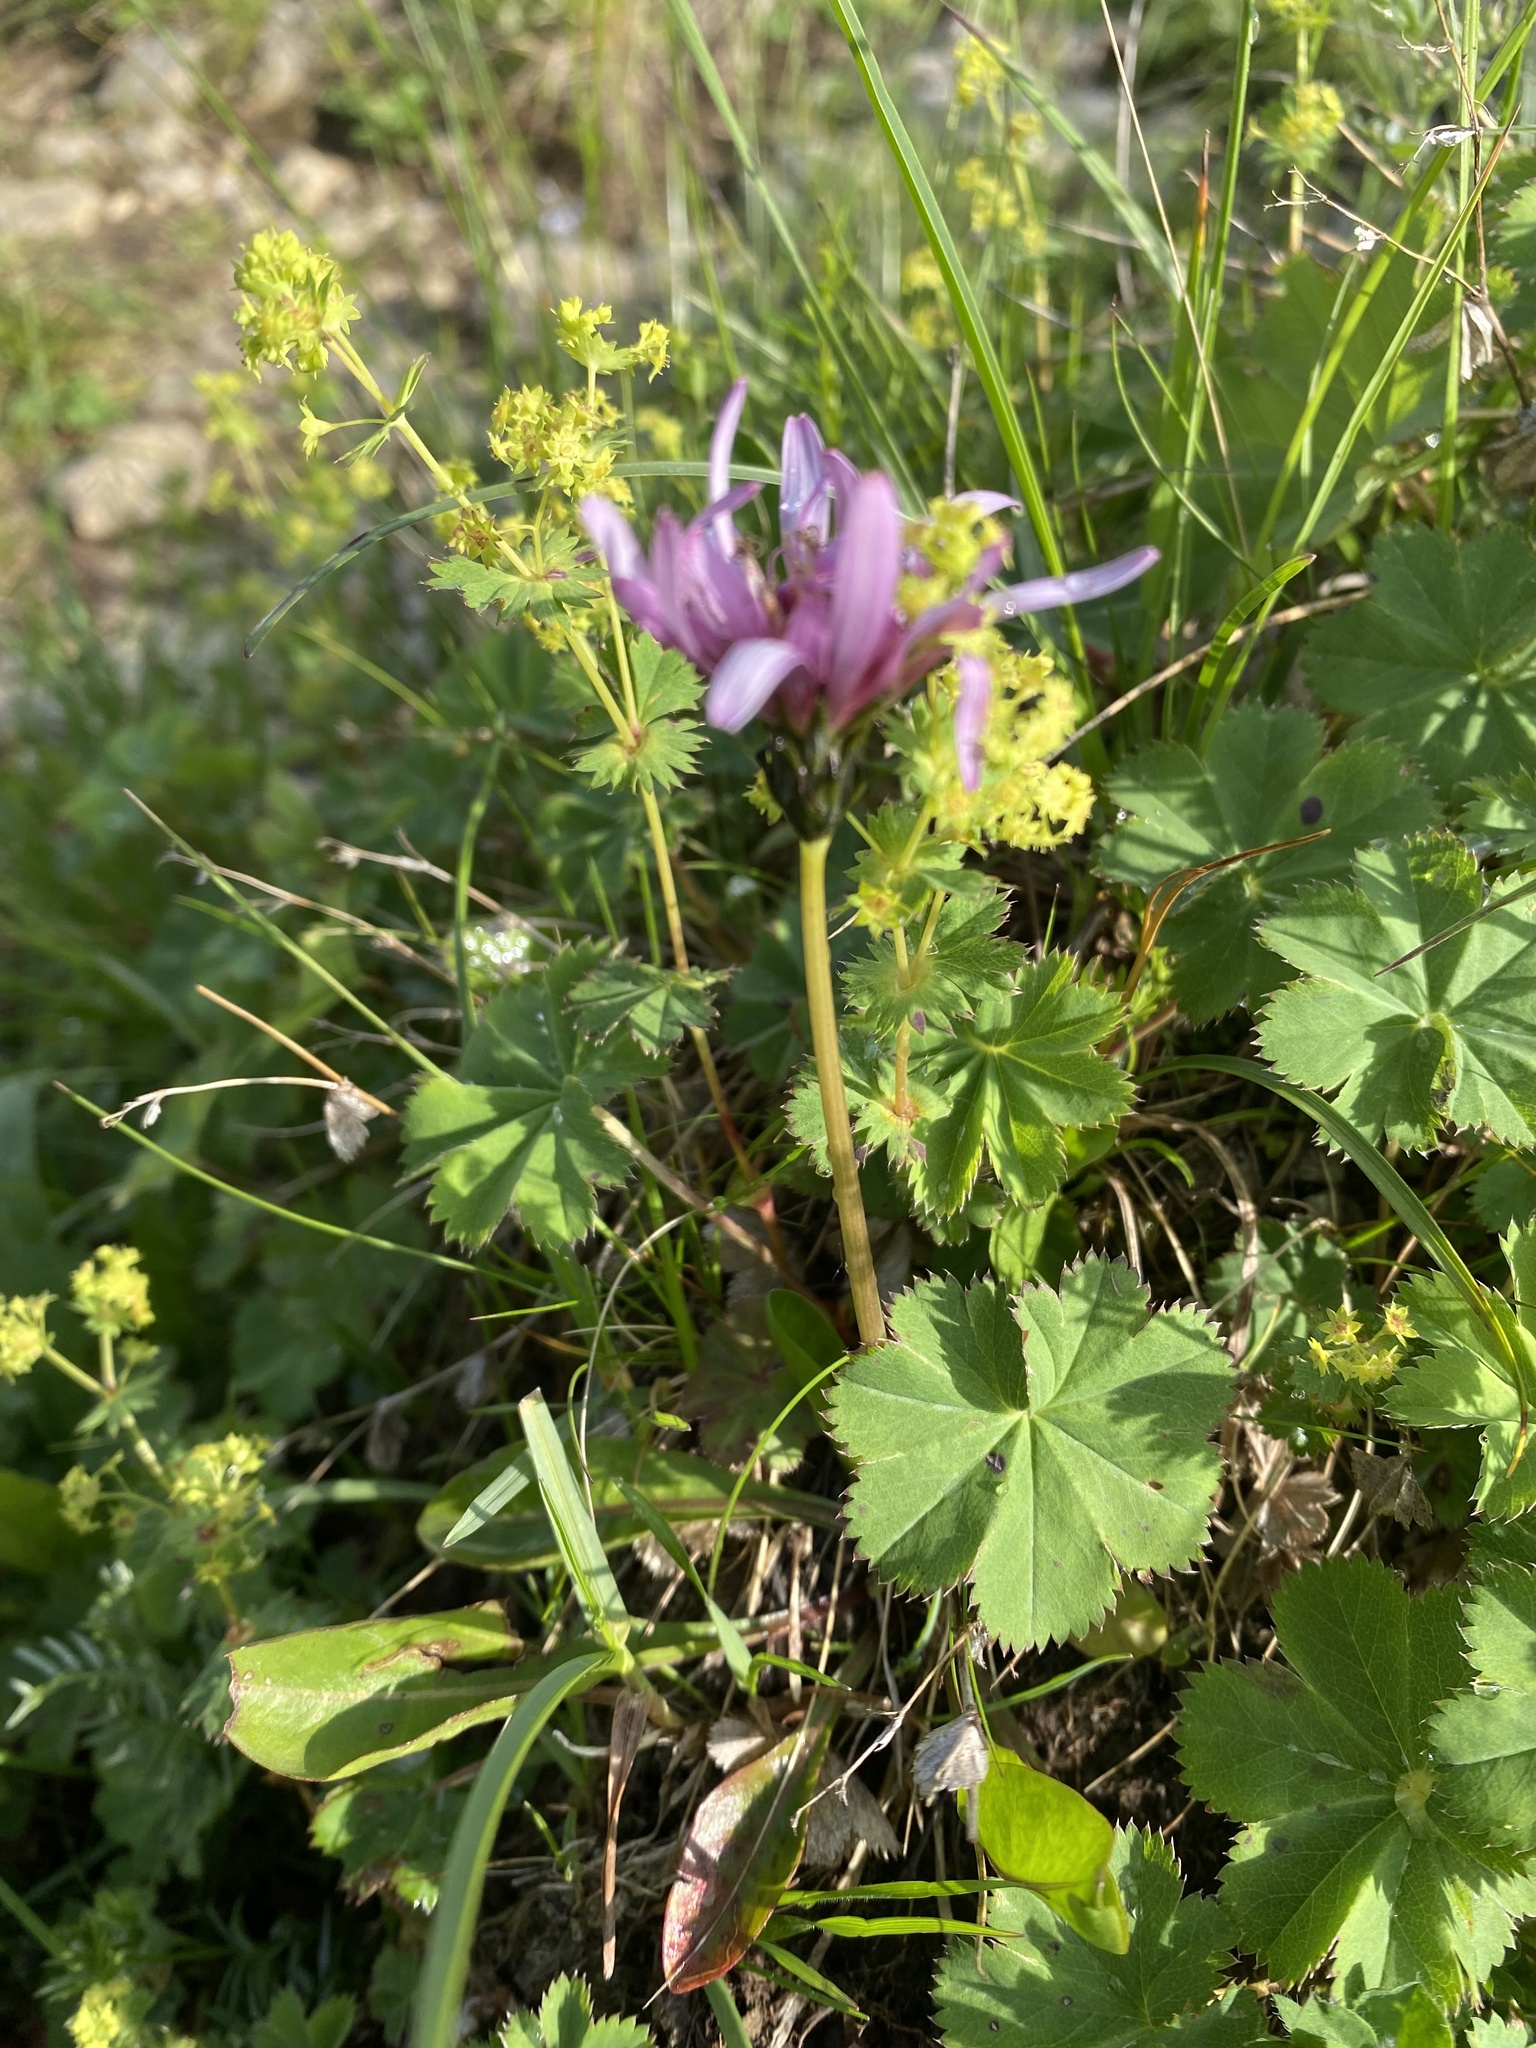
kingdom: Plantae
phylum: Tracheophyta
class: Magnoliopsida
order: Asterales
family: Asteraceae
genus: Taraxacum
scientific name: Taraxacum porphyranthum
